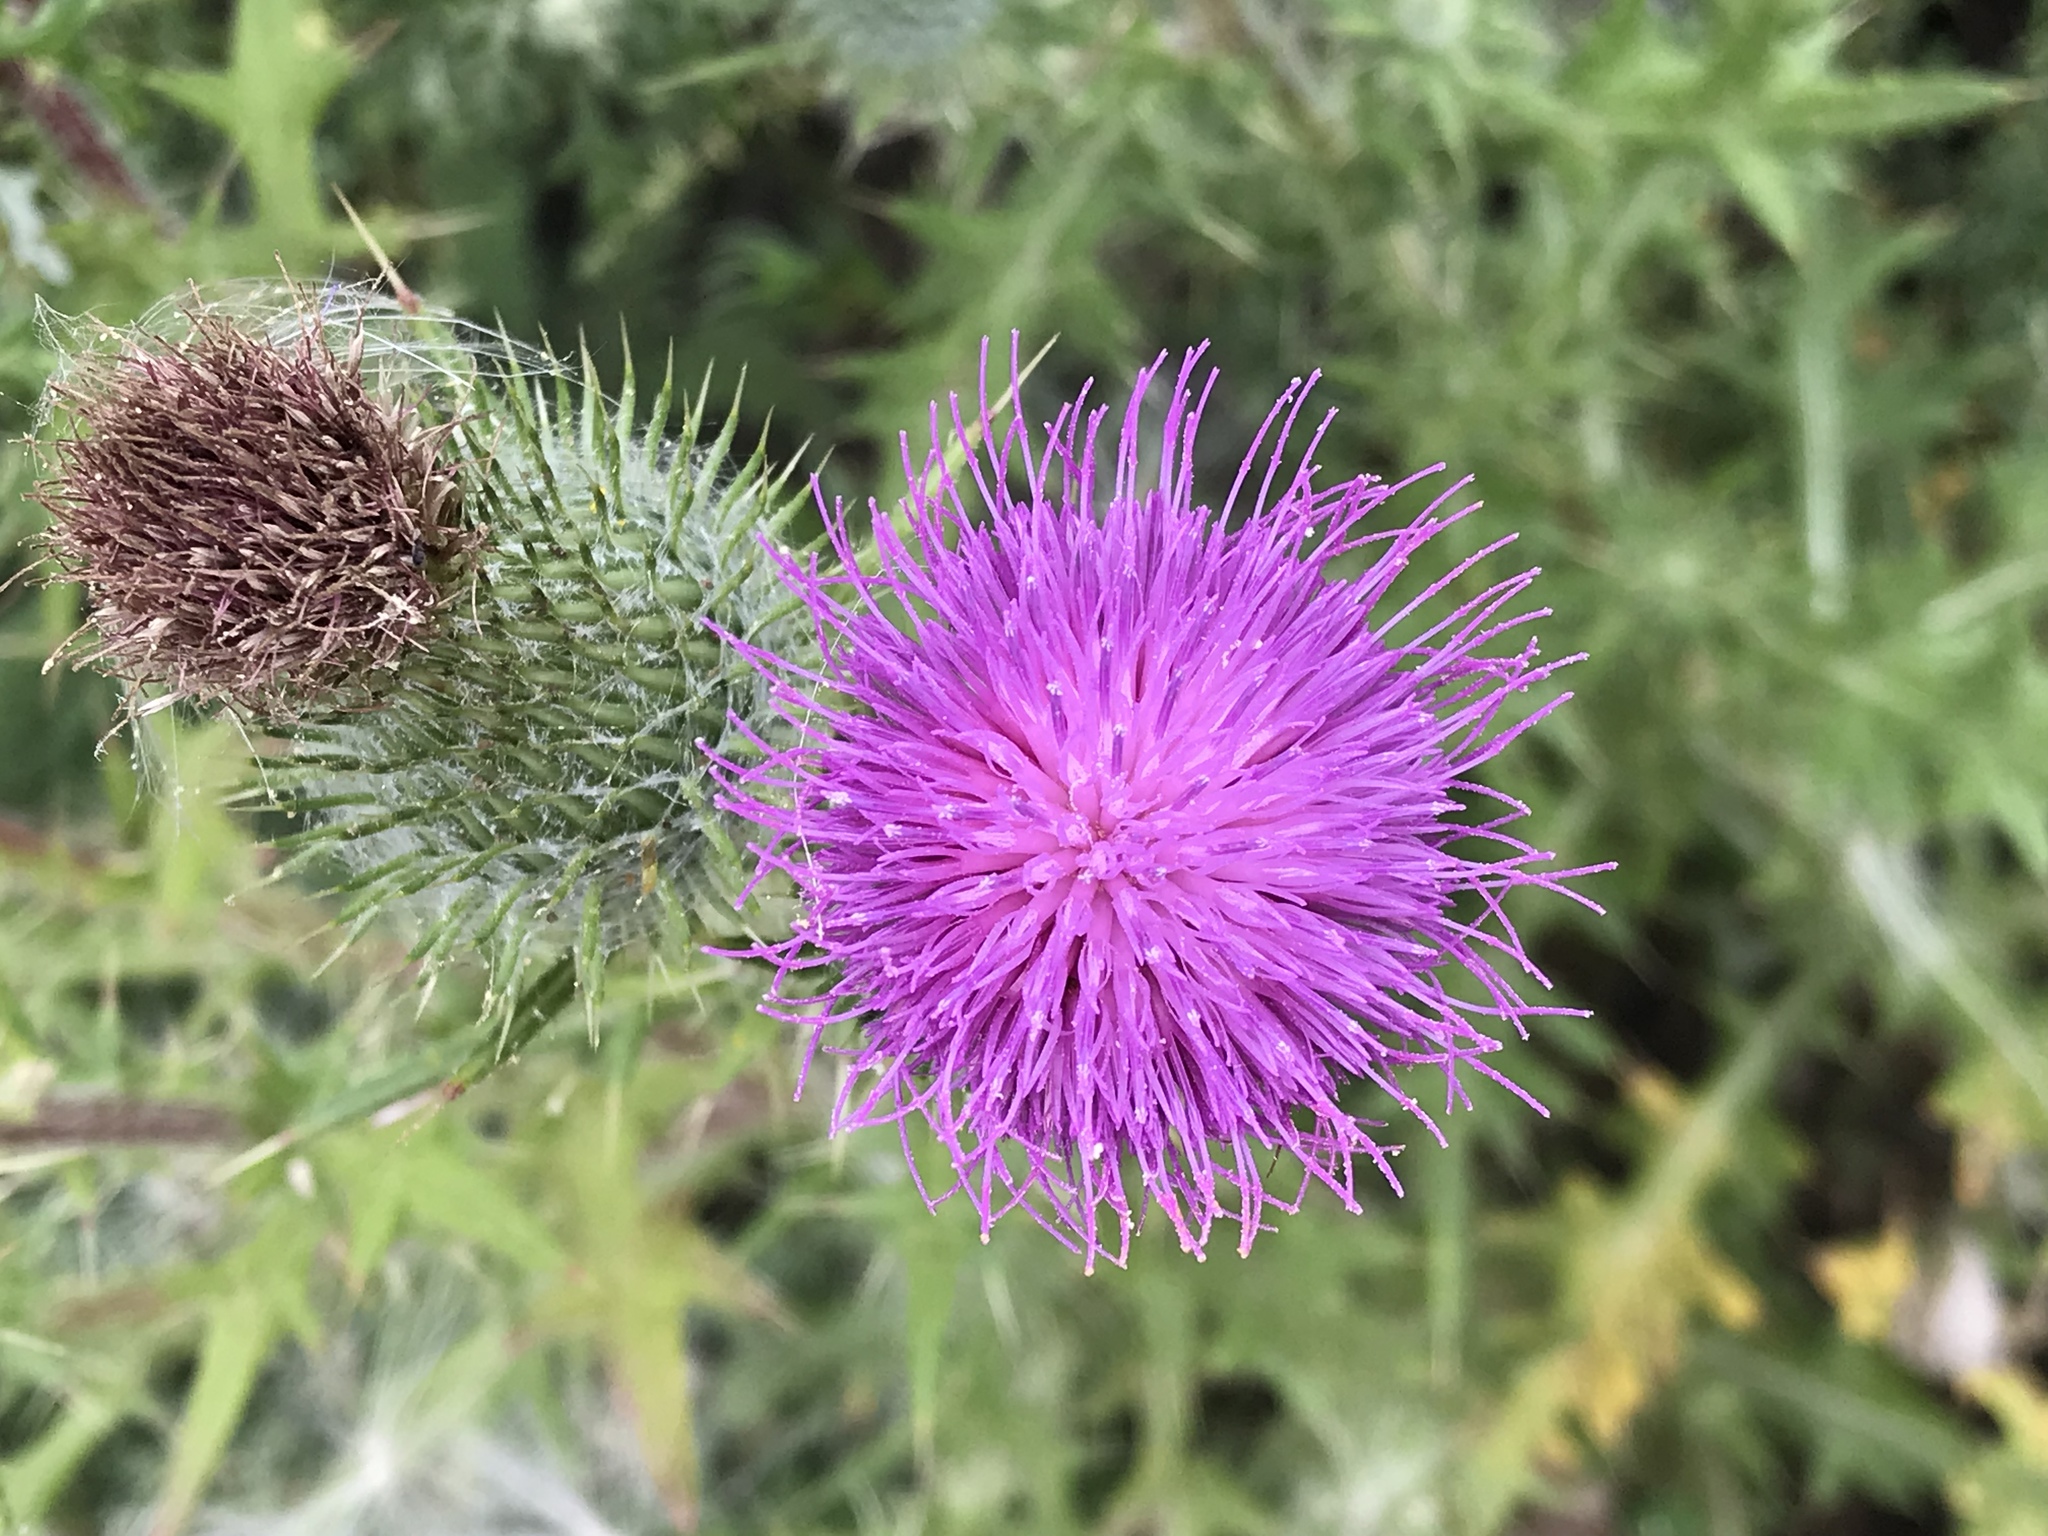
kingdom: Plantae
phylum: Tracheophyta
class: Magnoliopsida
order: Asterales
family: Asteraceae
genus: Cirsium
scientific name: Cirsium vulgare
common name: Bull thistle
